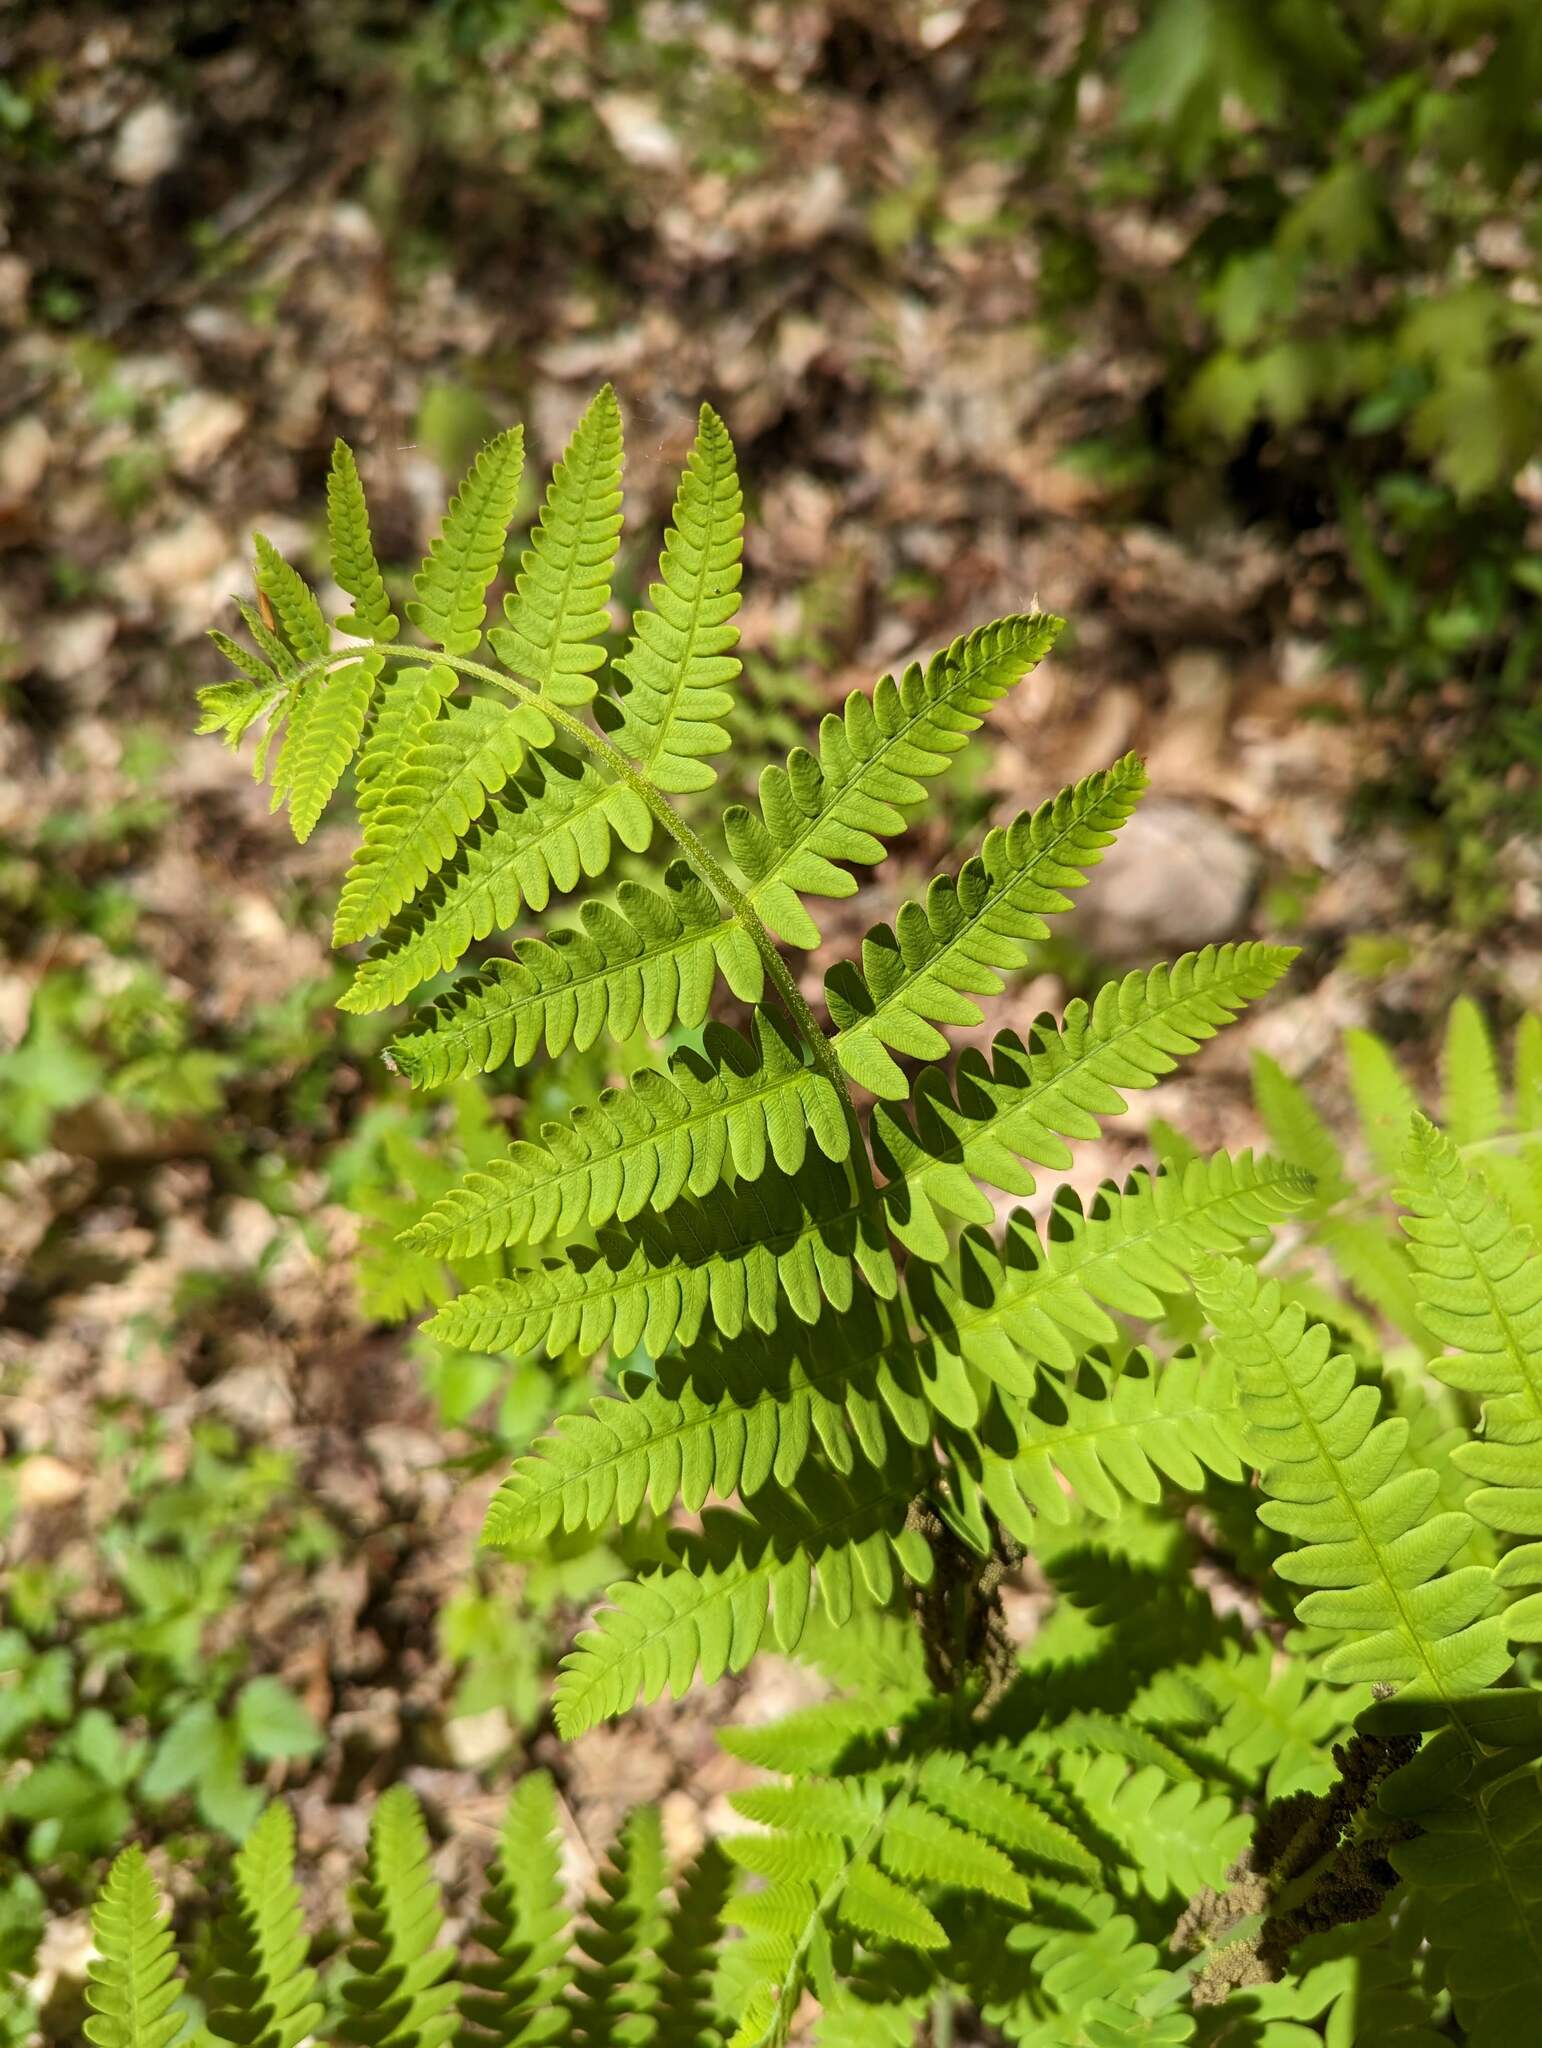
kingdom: Plantae
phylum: Tracheophyta
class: Polypodiopsida
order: Osmundales
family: Osmundaceae
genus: Claytosmunda
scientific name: Claytosmunda claytoniana
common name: Clayton's fern
